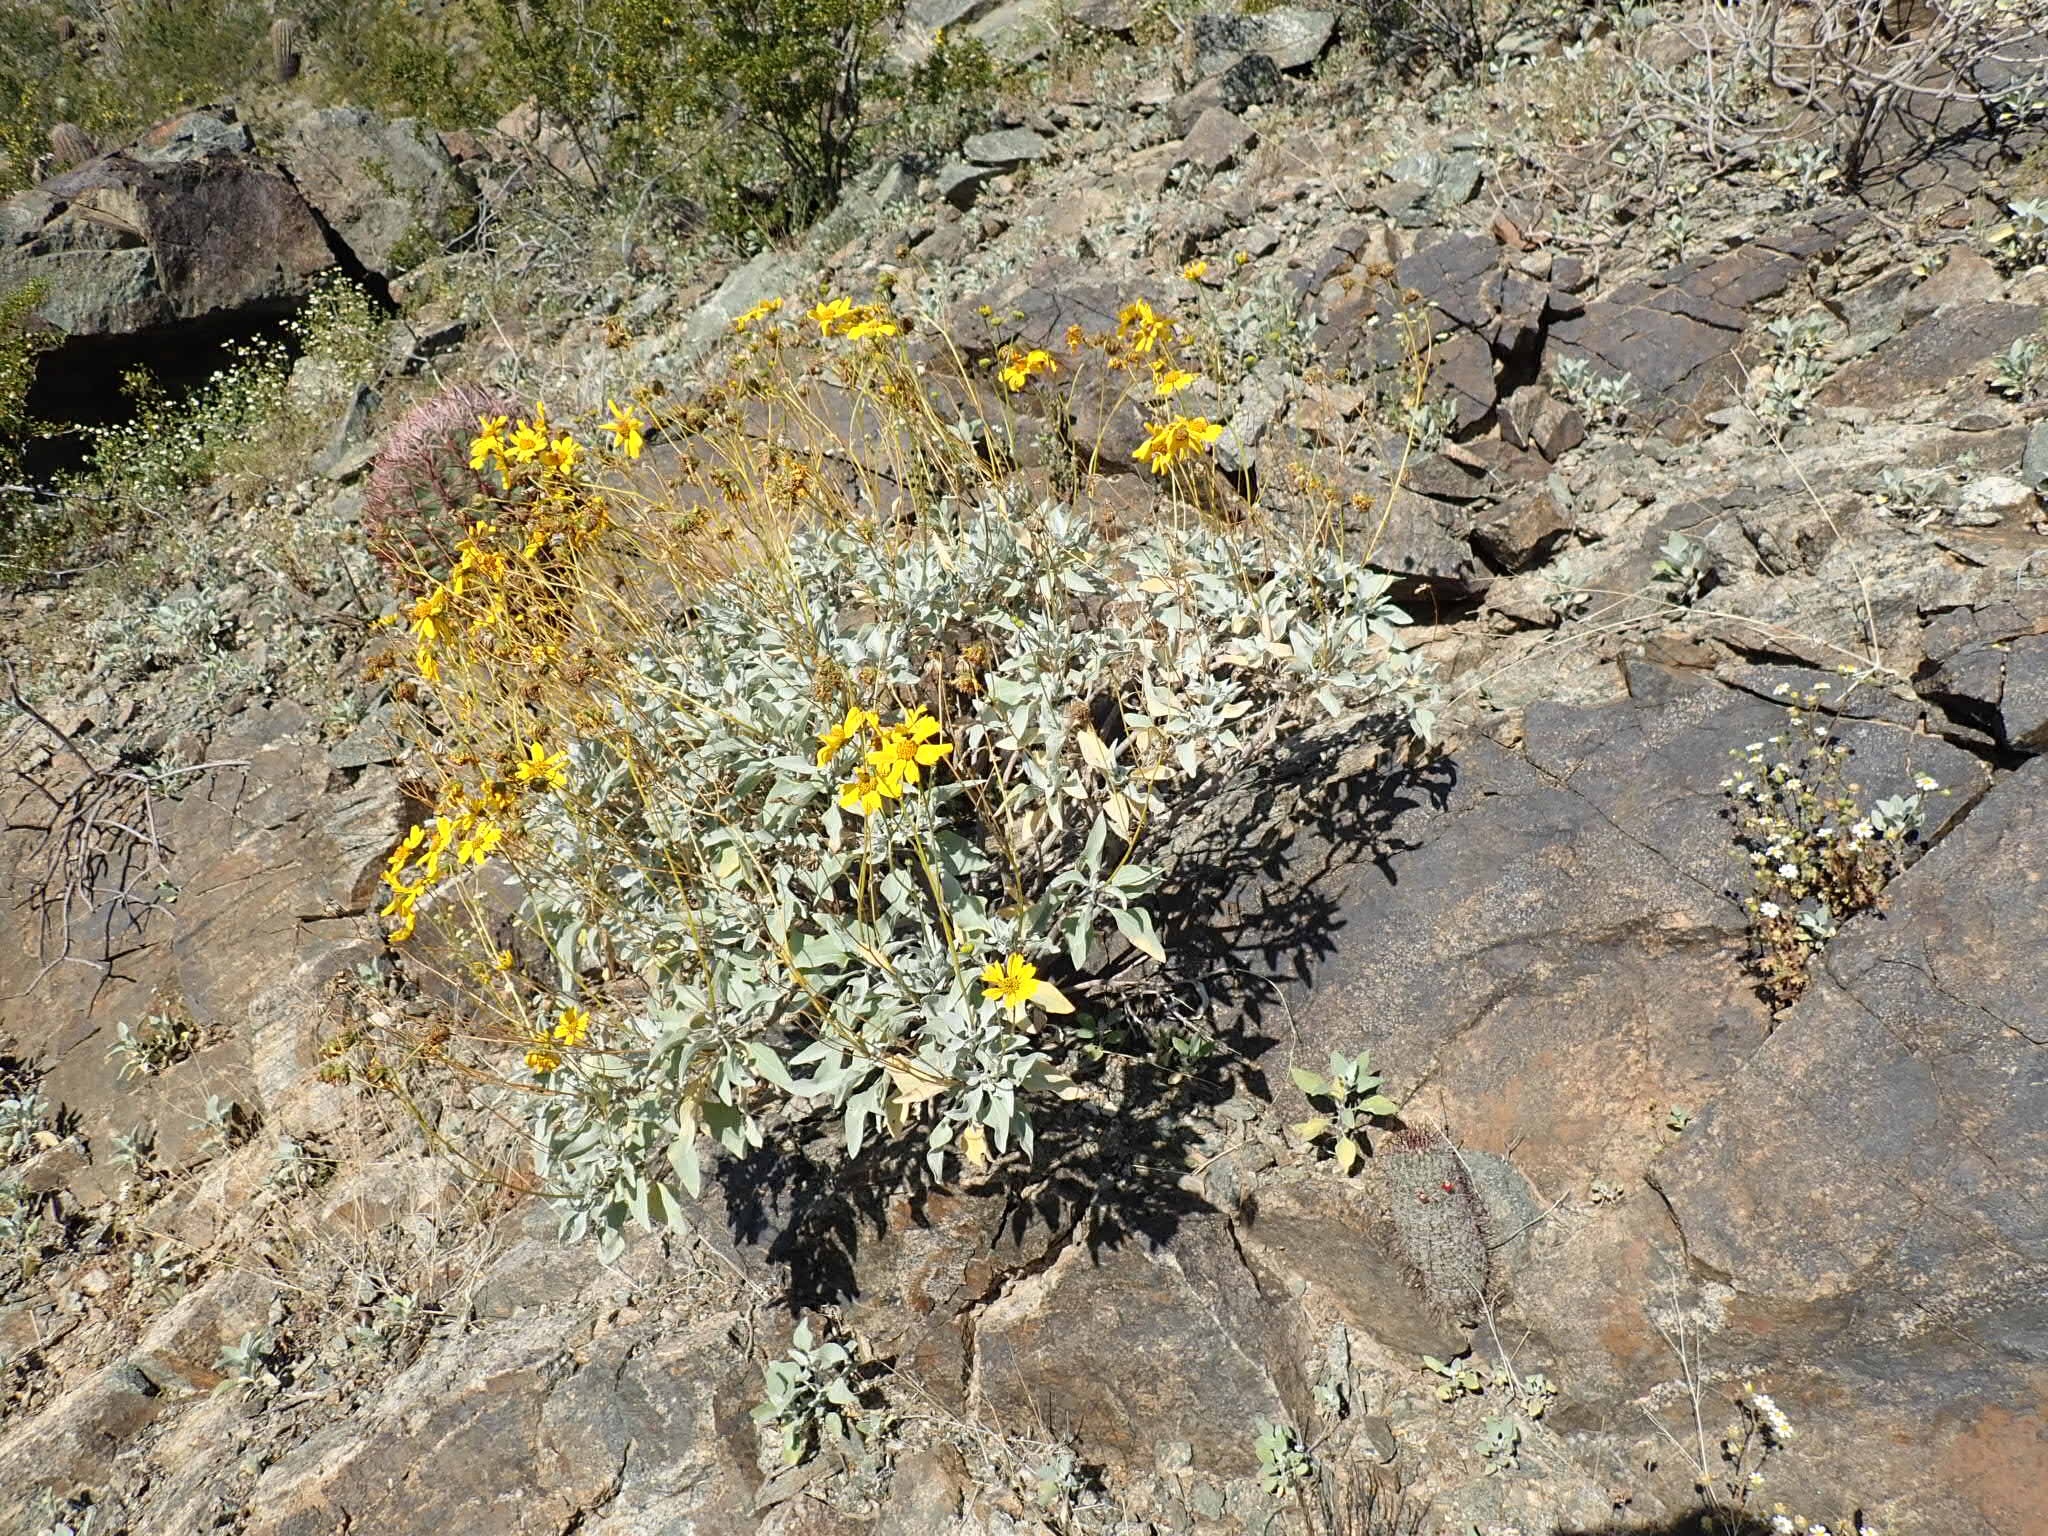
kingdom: Plantae
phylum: Tracheophyta
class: Magnoliopsida
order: Asterales
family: Asteraceae
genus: Encelia
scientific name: Encelia farinosa
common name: Brittlebush
